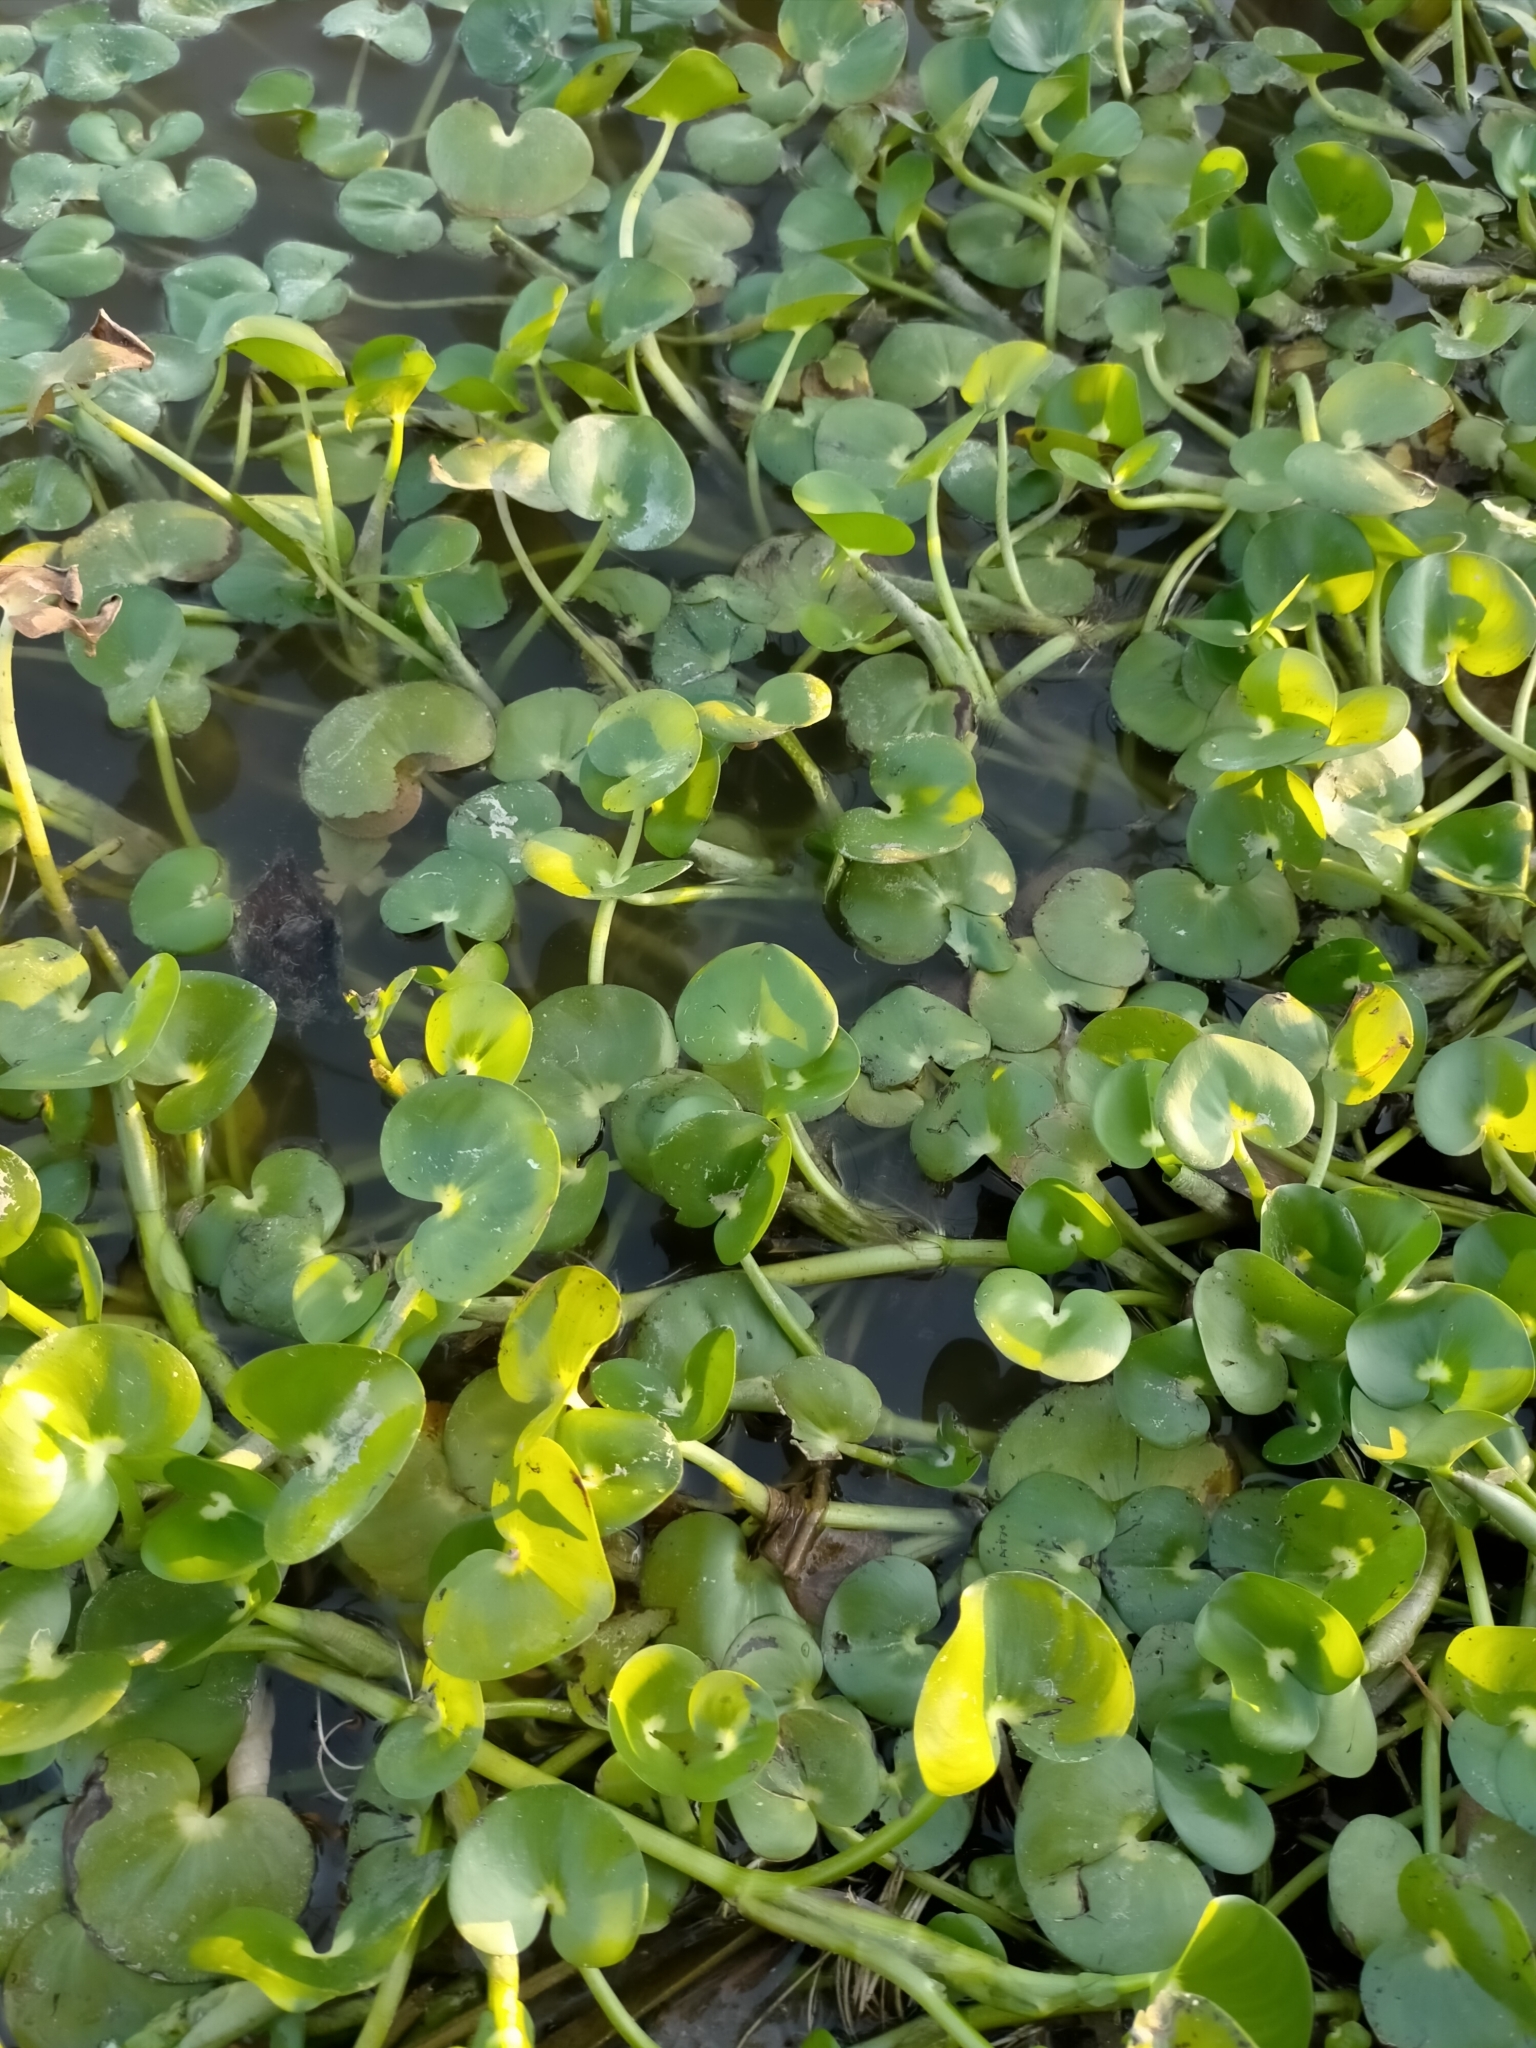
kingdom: Plantae
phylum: Tracheophyta
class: Liliopsida
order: Commelinales
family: Pontederiaceae
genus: Heteranthera
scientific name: Heteranthera reniformis
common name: Kidneyleaf mudplantain
